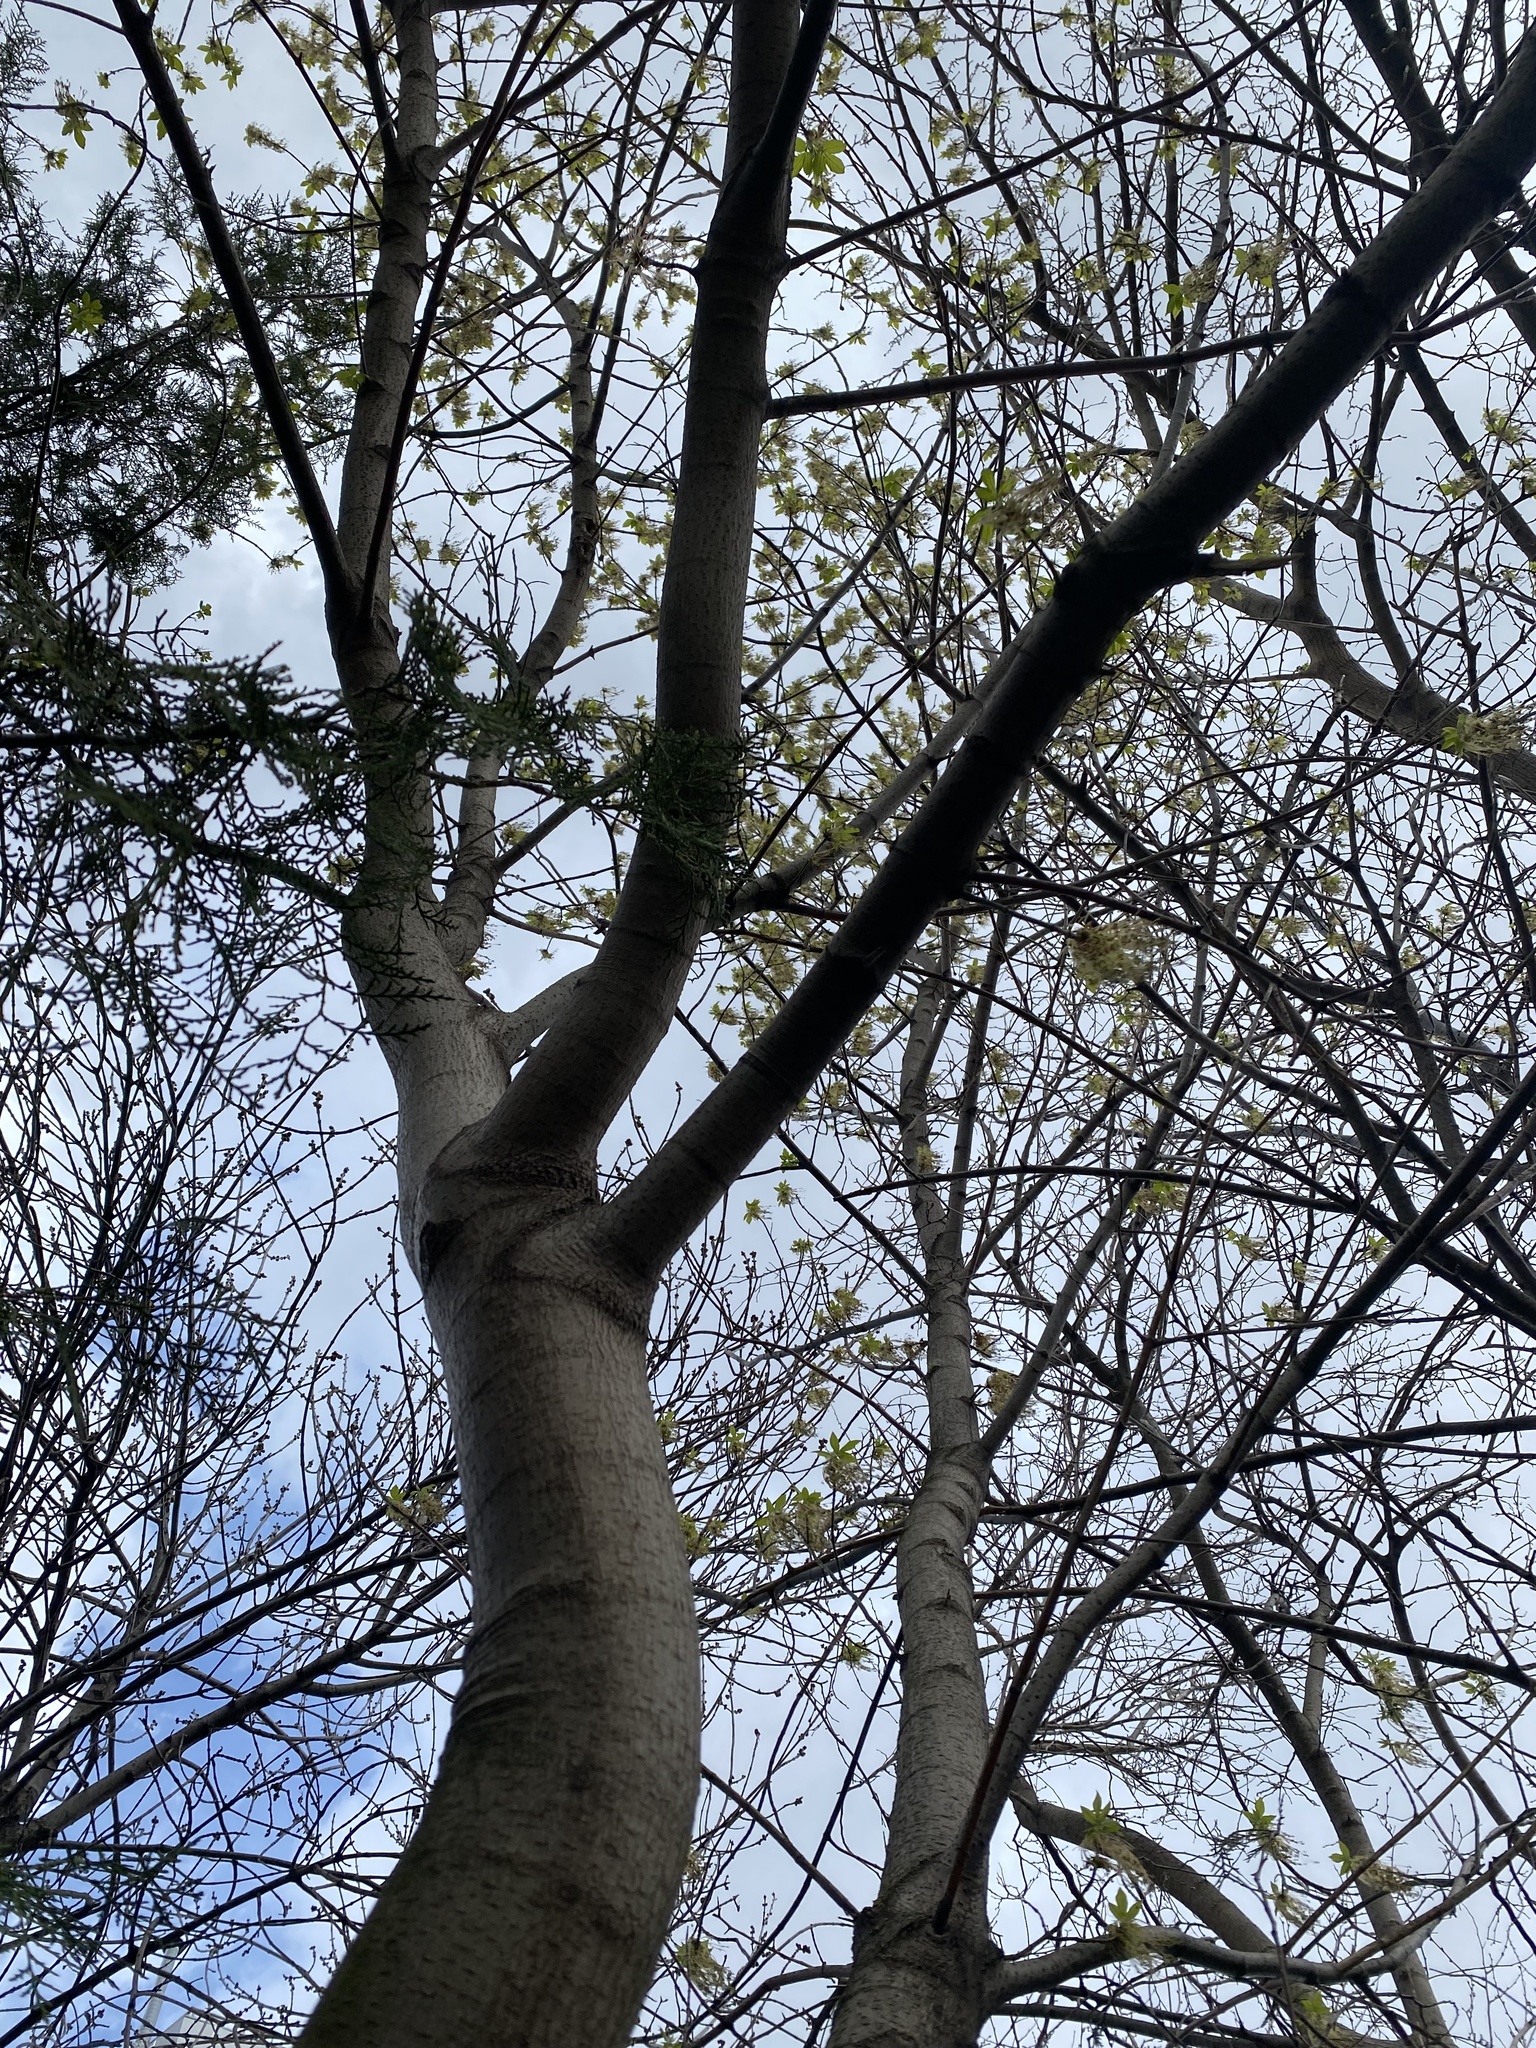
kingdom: Plantae
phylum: Tracheophyta
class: Magnoliopsida
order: Sapindales
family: Sapindaceae
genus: Acer
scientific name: Acer negundo
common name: Ashleaf maple
